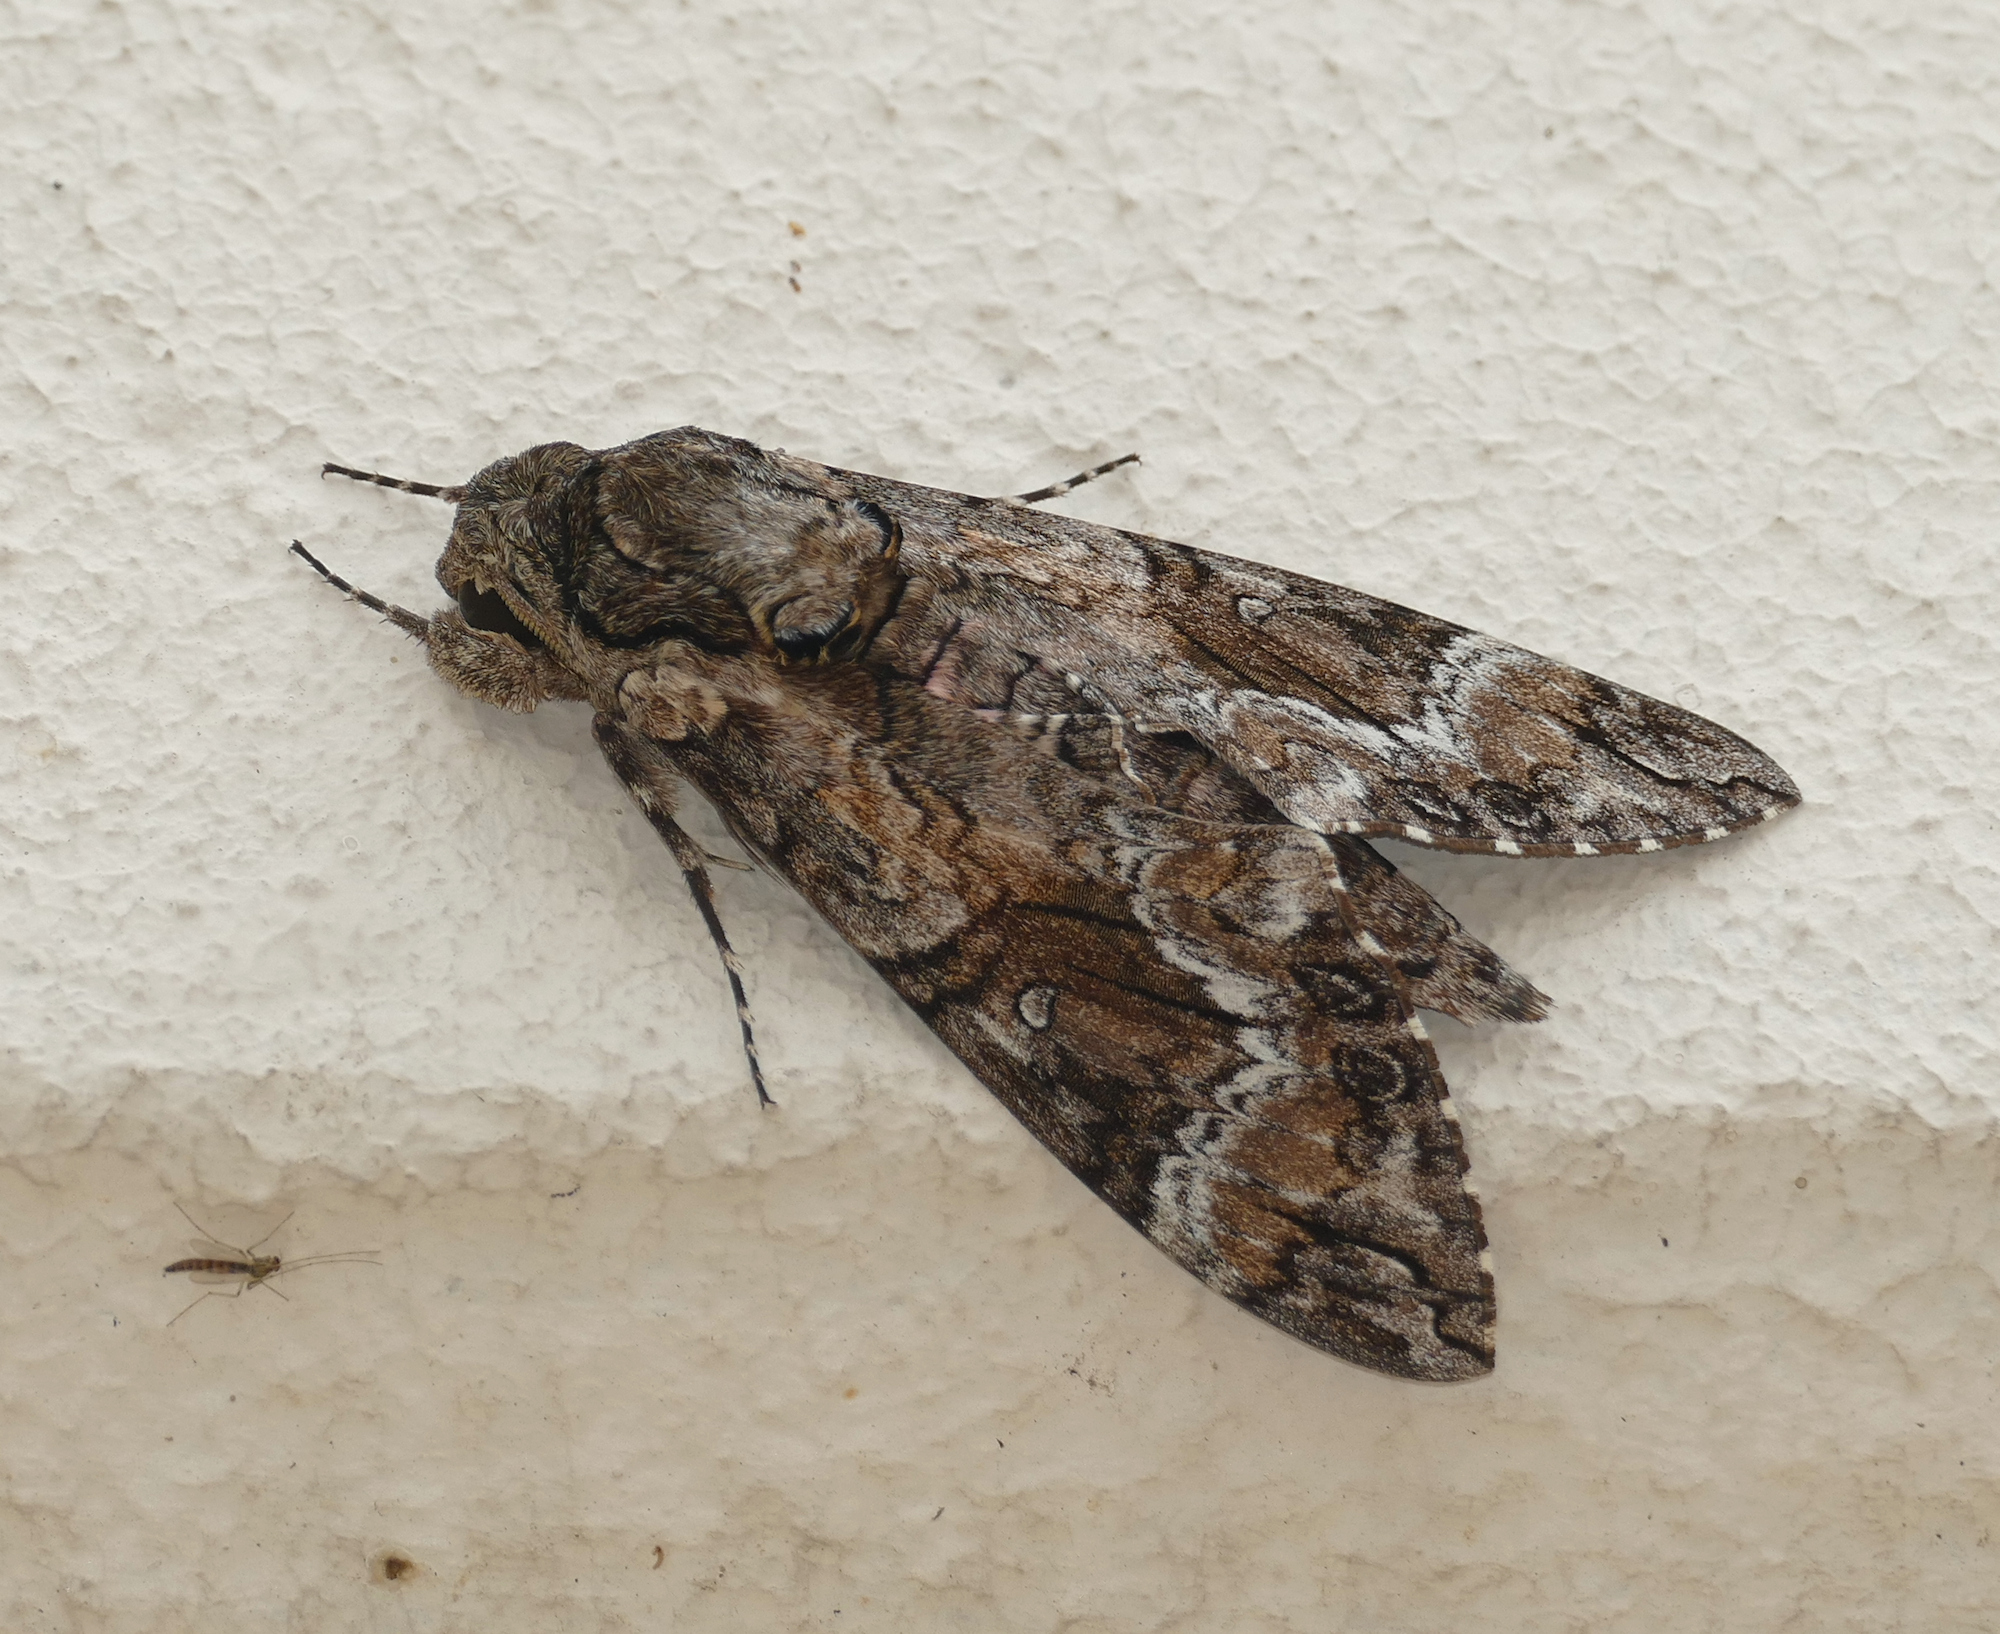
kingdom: Animalia
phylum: Arthropoda
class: Insecta
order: Lepidoptera
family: Sphingidae
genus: Agrius
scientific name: Agrius cingulata
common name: Pink-spotted hawkmoth
